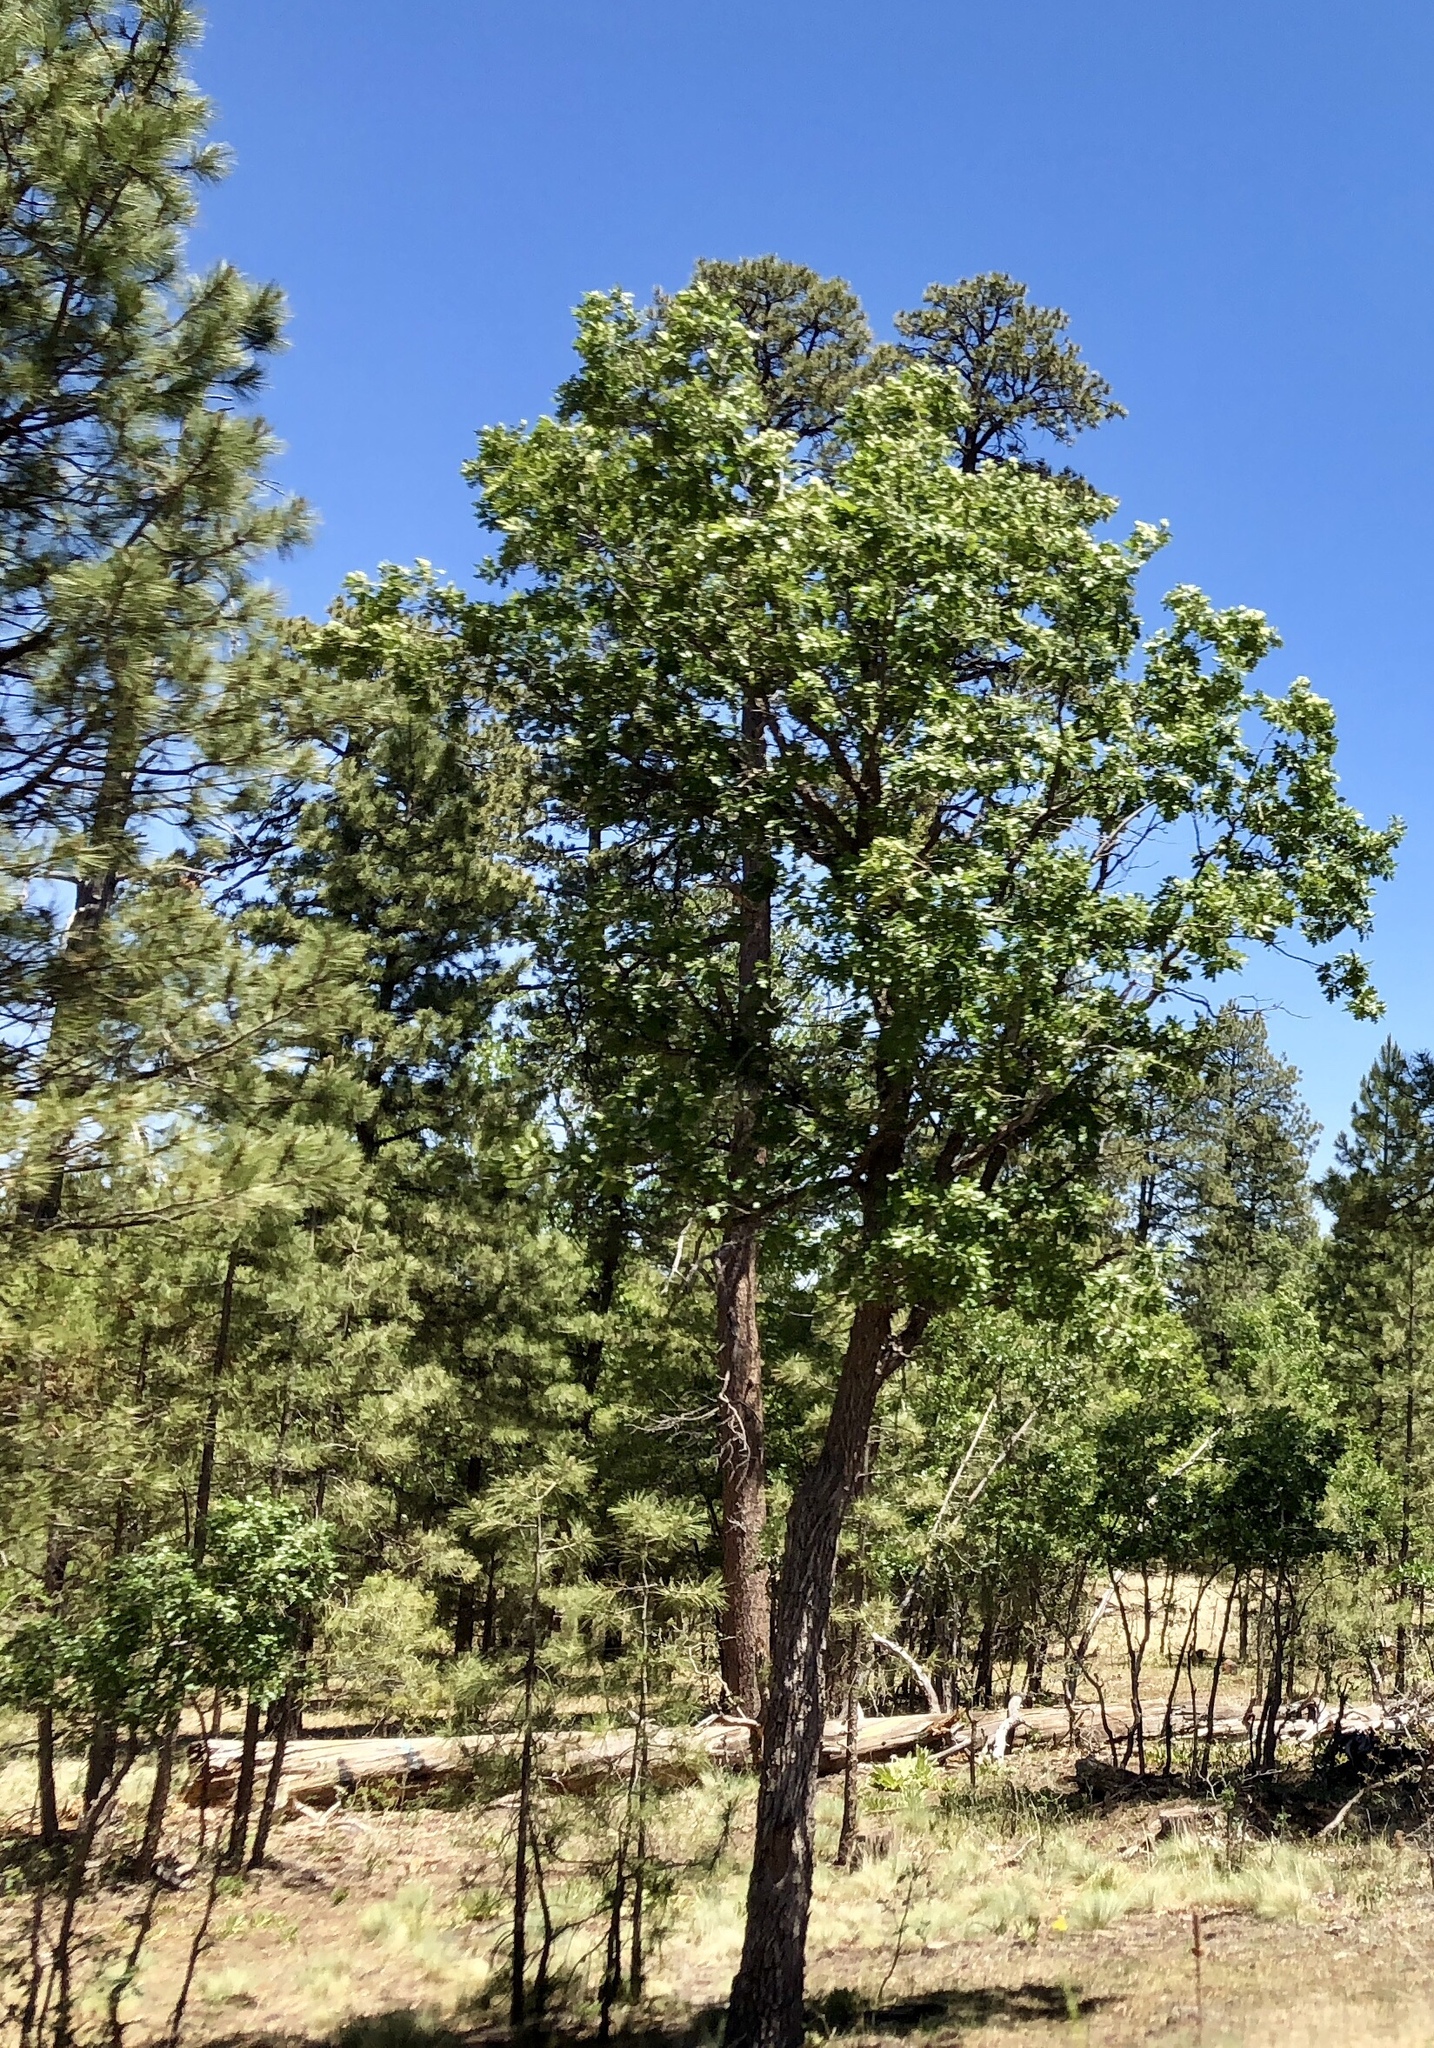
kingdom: Plantae
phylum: Tracheophyta
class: Magnoliopsida
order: Fagales
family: Fagaceae
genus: Quercus
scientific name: Quercus gambelii
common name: Gambel oak
